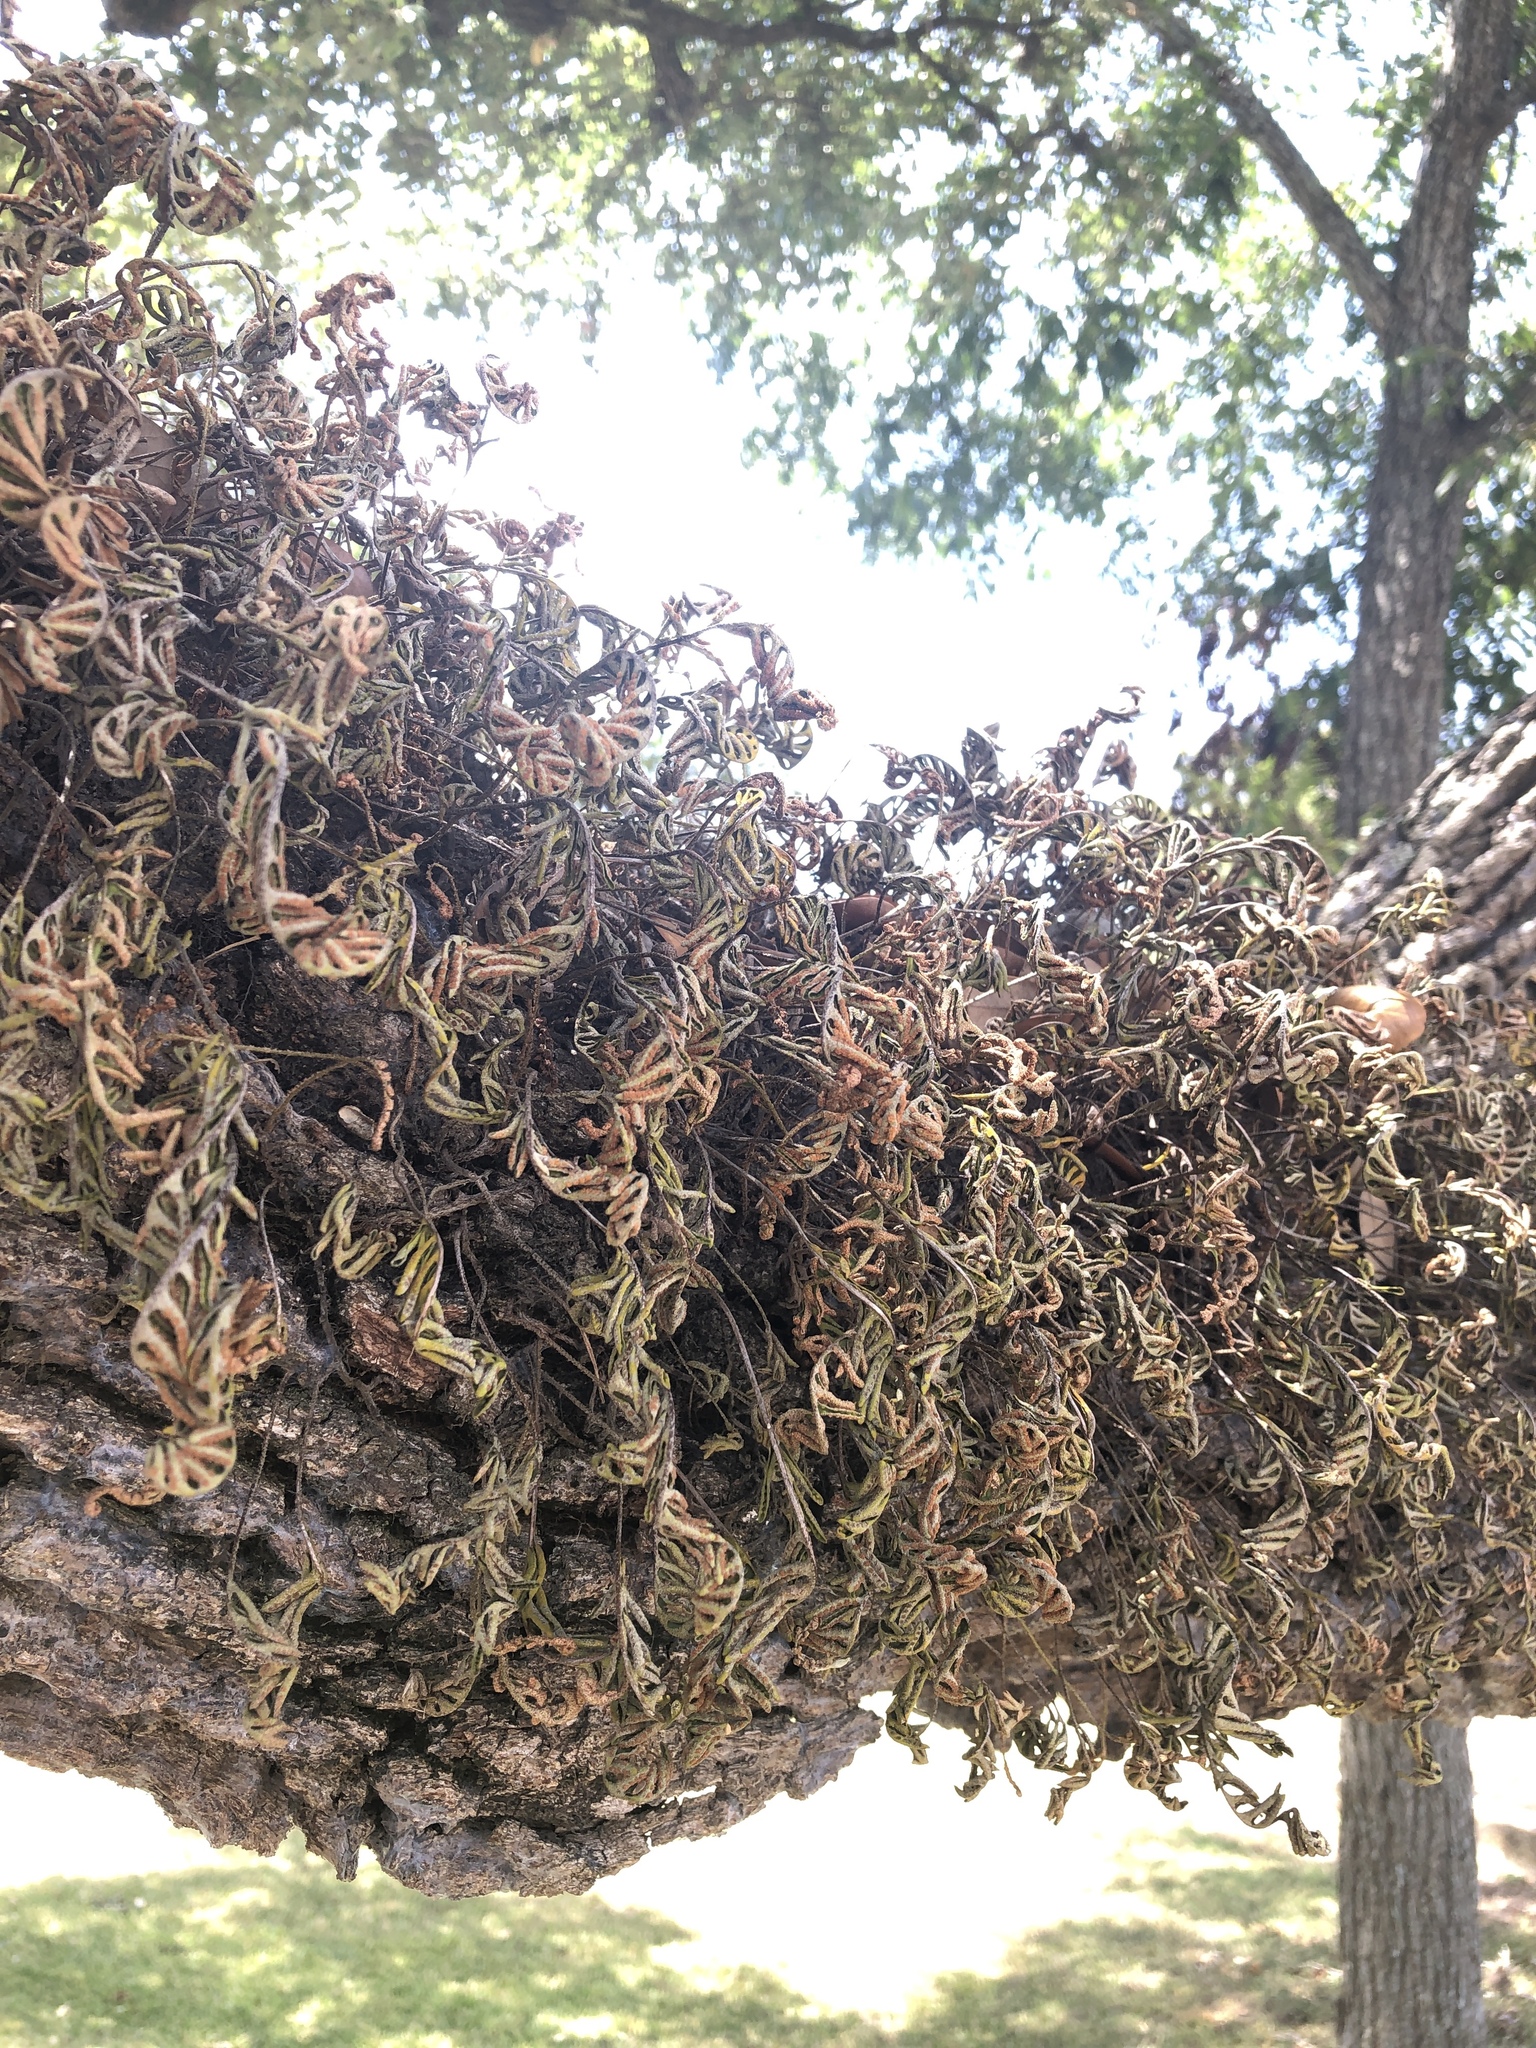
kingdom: Plantae
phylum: Tracheophyta
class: Polypodiopsida
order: Polypodiales
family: Polypodiaceae
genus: Pleopeltis
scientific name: Pleopeltis michauxiana
